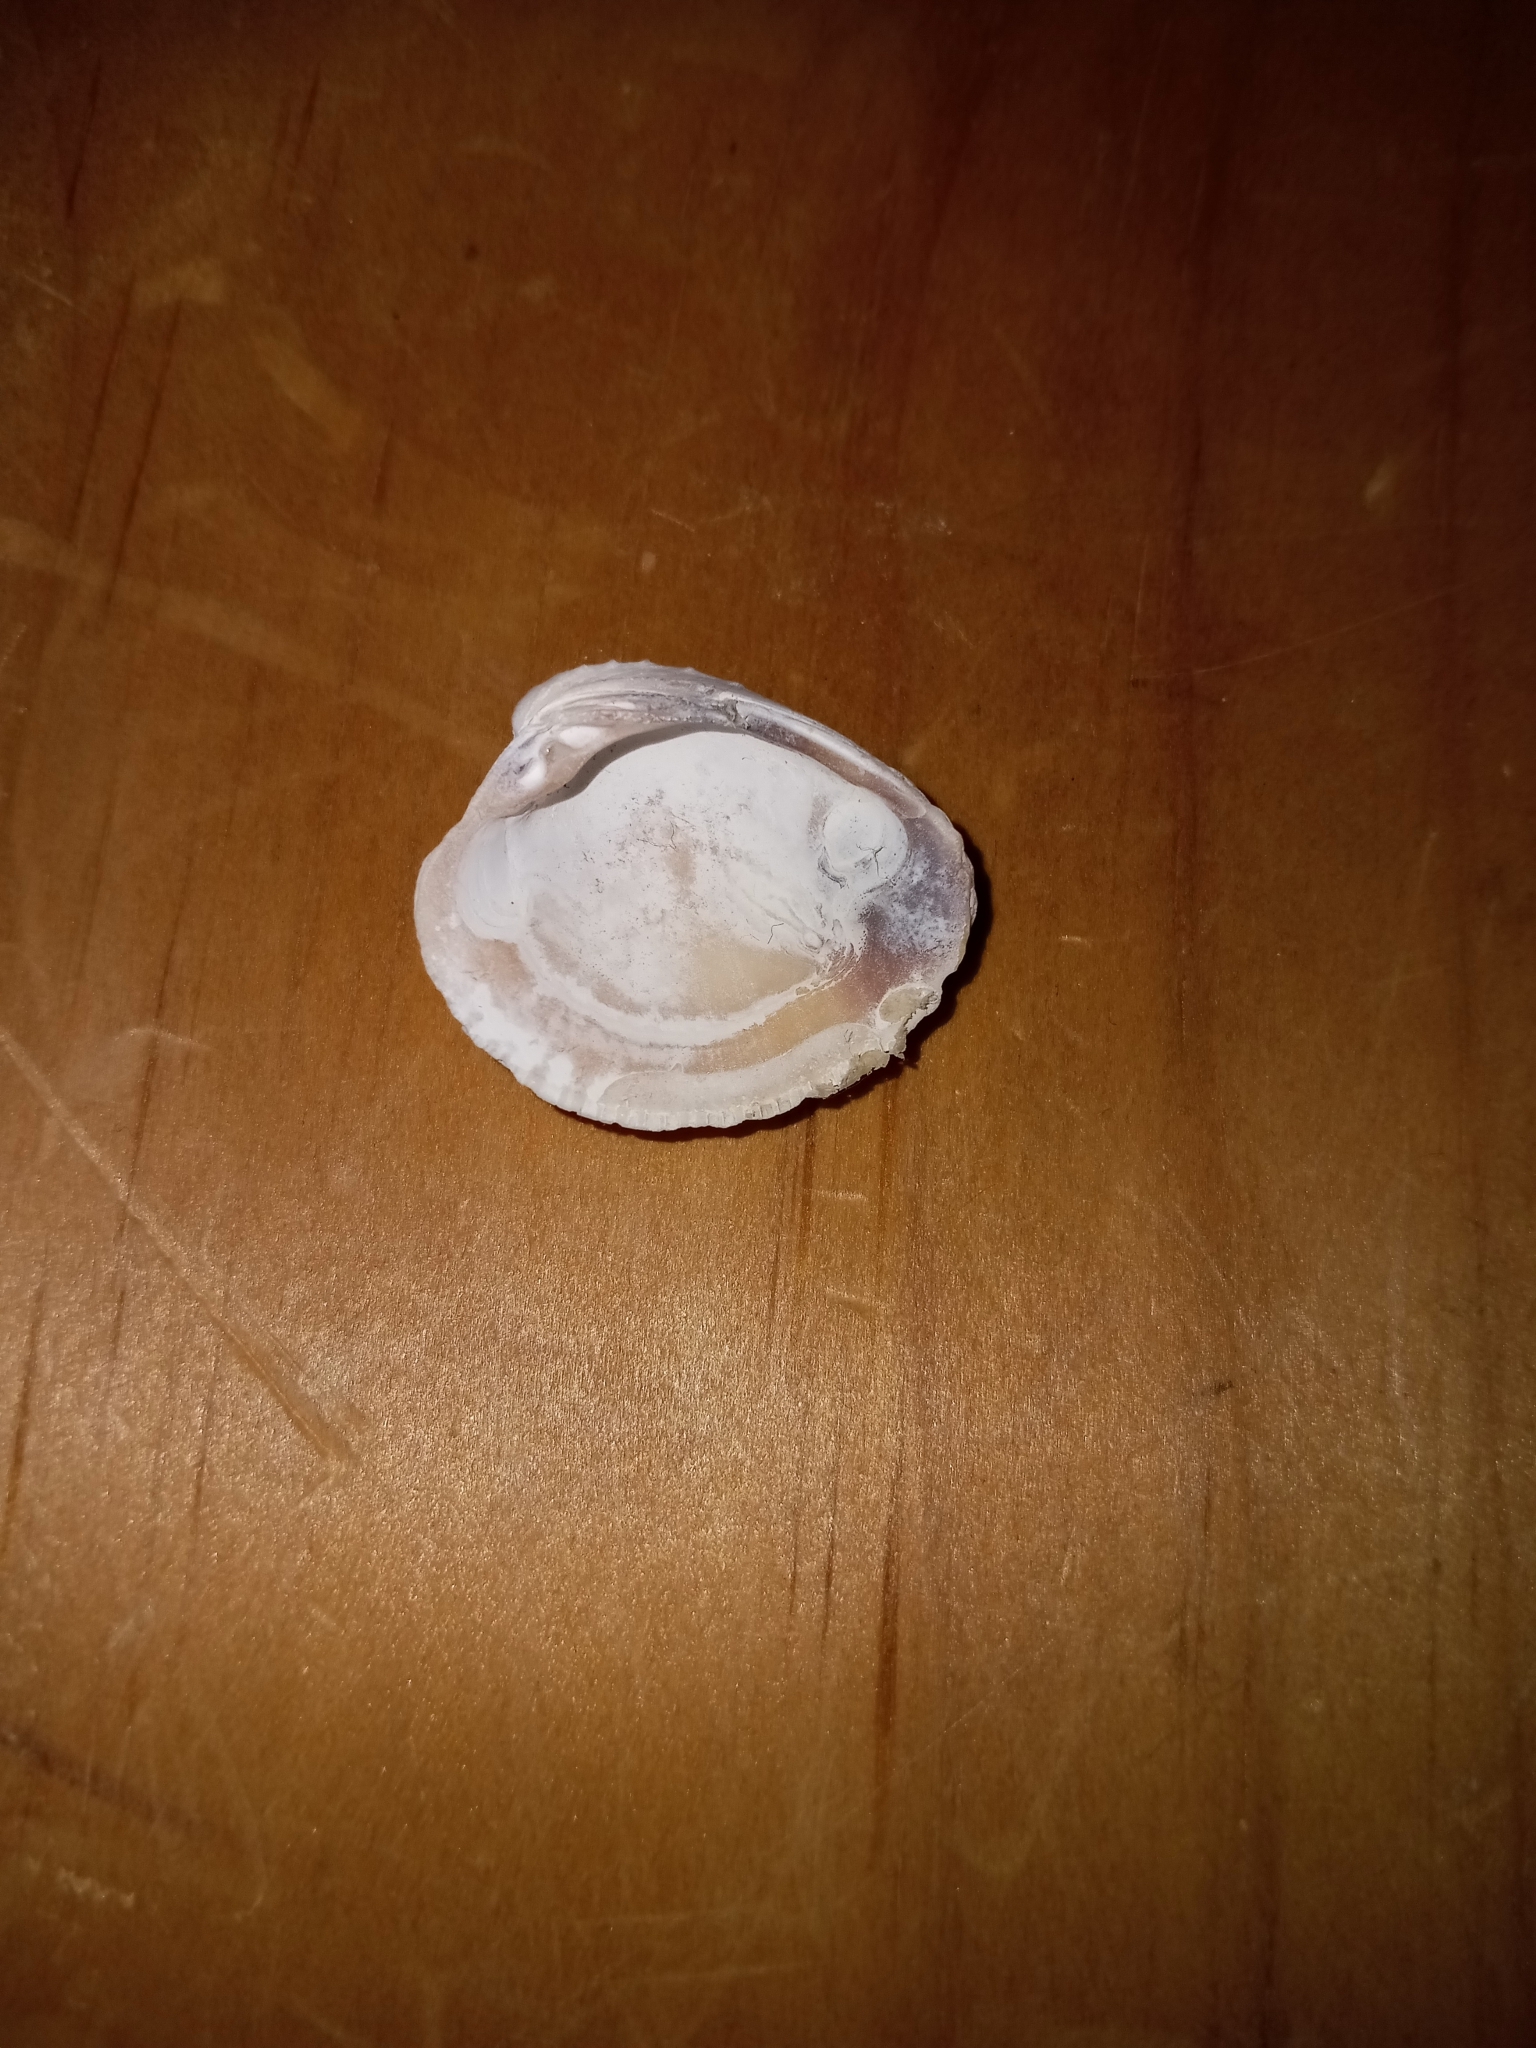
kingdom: Animalia
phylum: Mollusca
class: Bivalvia
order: Venerida
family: Veneridae
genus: Chione
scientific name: Chione elevata
